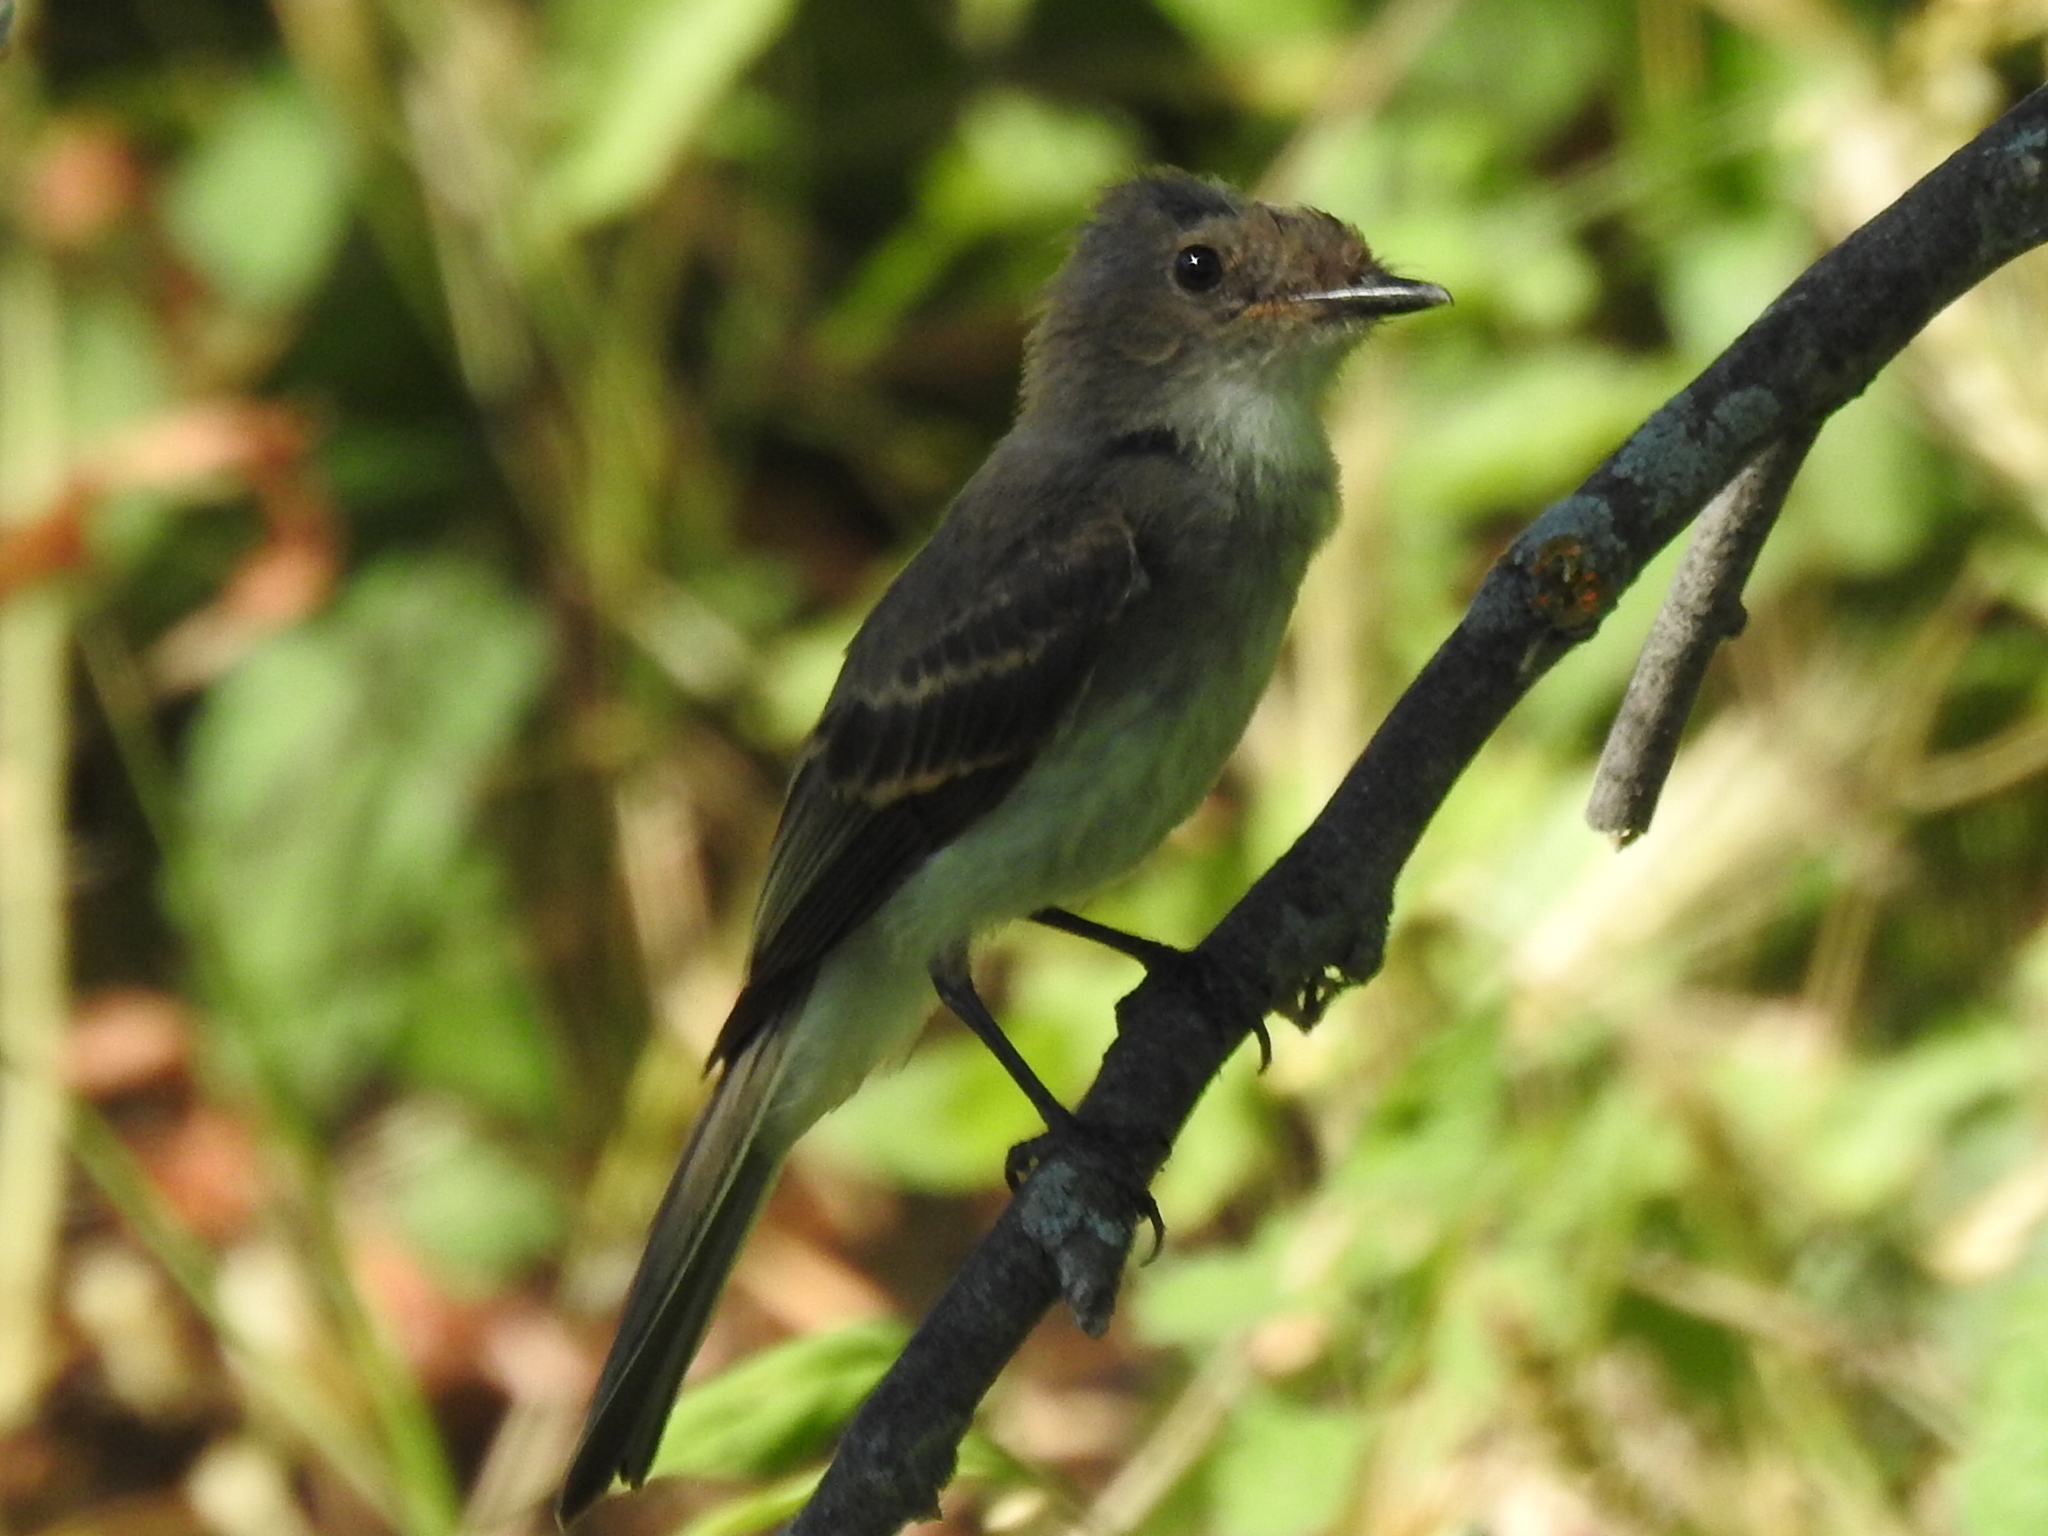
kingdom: Animalia
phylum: Chordata
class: Aves
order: Passeriformes
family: Tyrannidae
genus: Sayornis
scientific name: Sayornis phoebe
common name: Eastern phoebe
